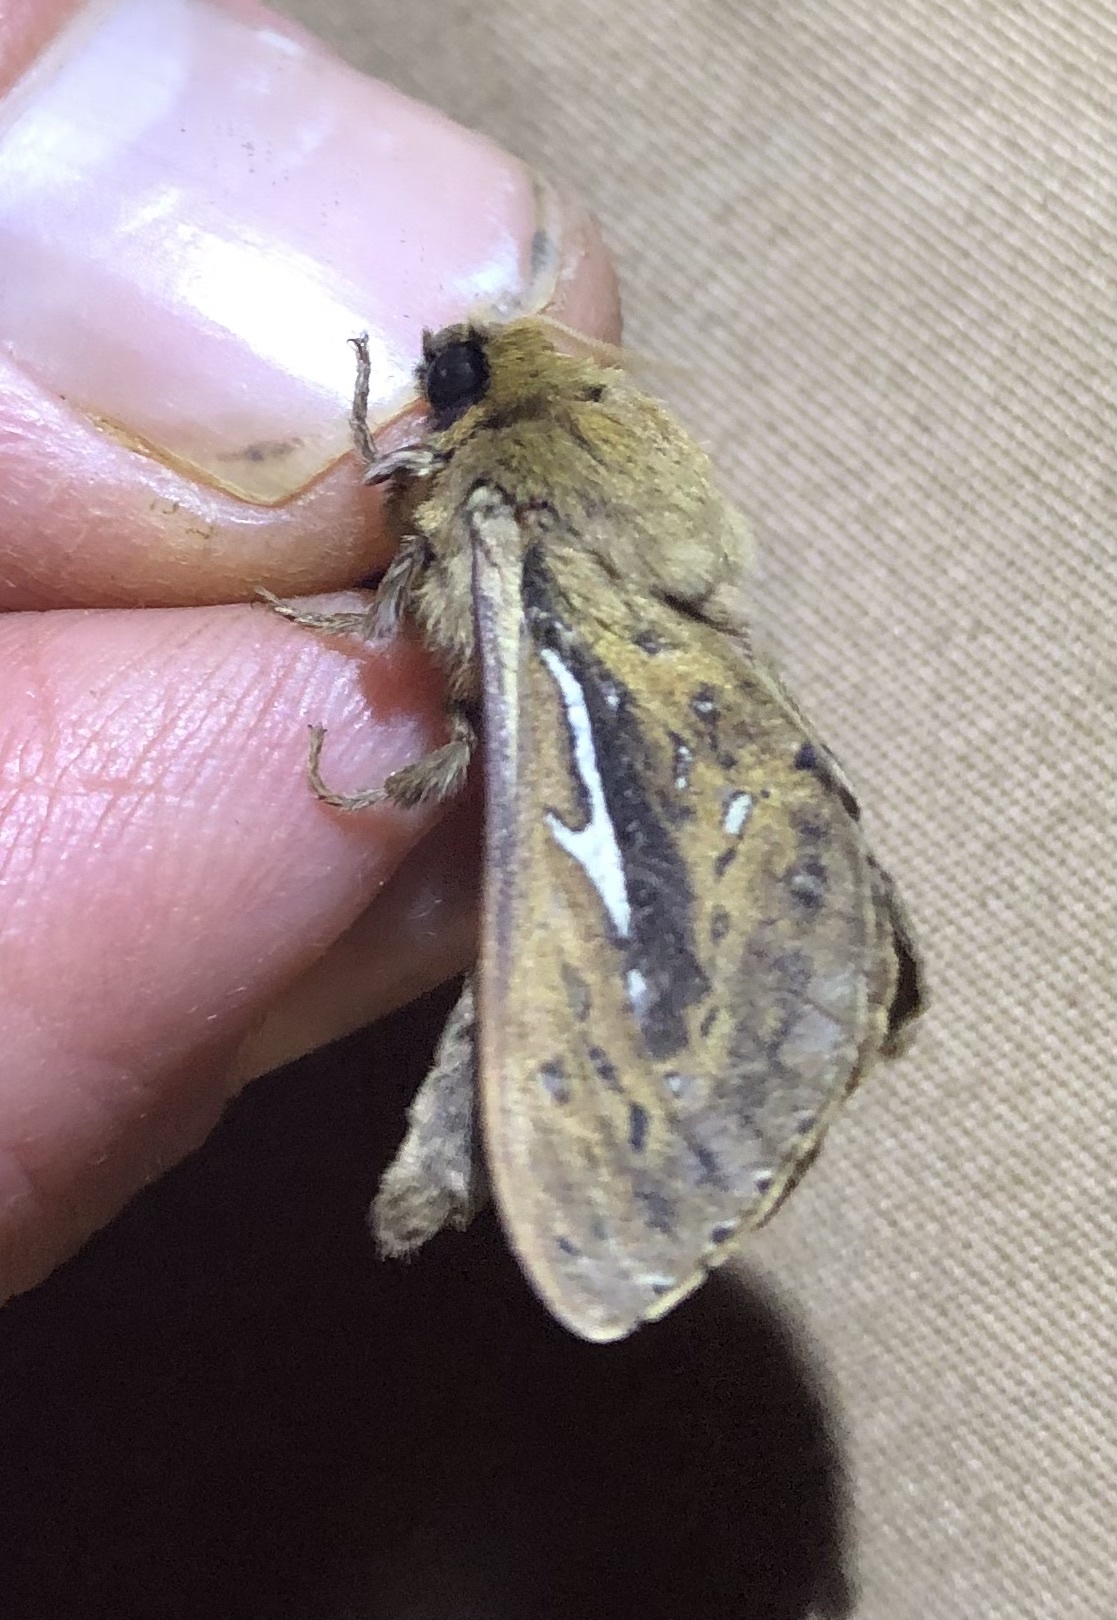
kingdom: Animalia
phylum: Arthropoda
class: Insecta
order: Lepidoptera
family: Hepialidae
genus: Wiseana
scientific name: Wiseana umbraculatus
